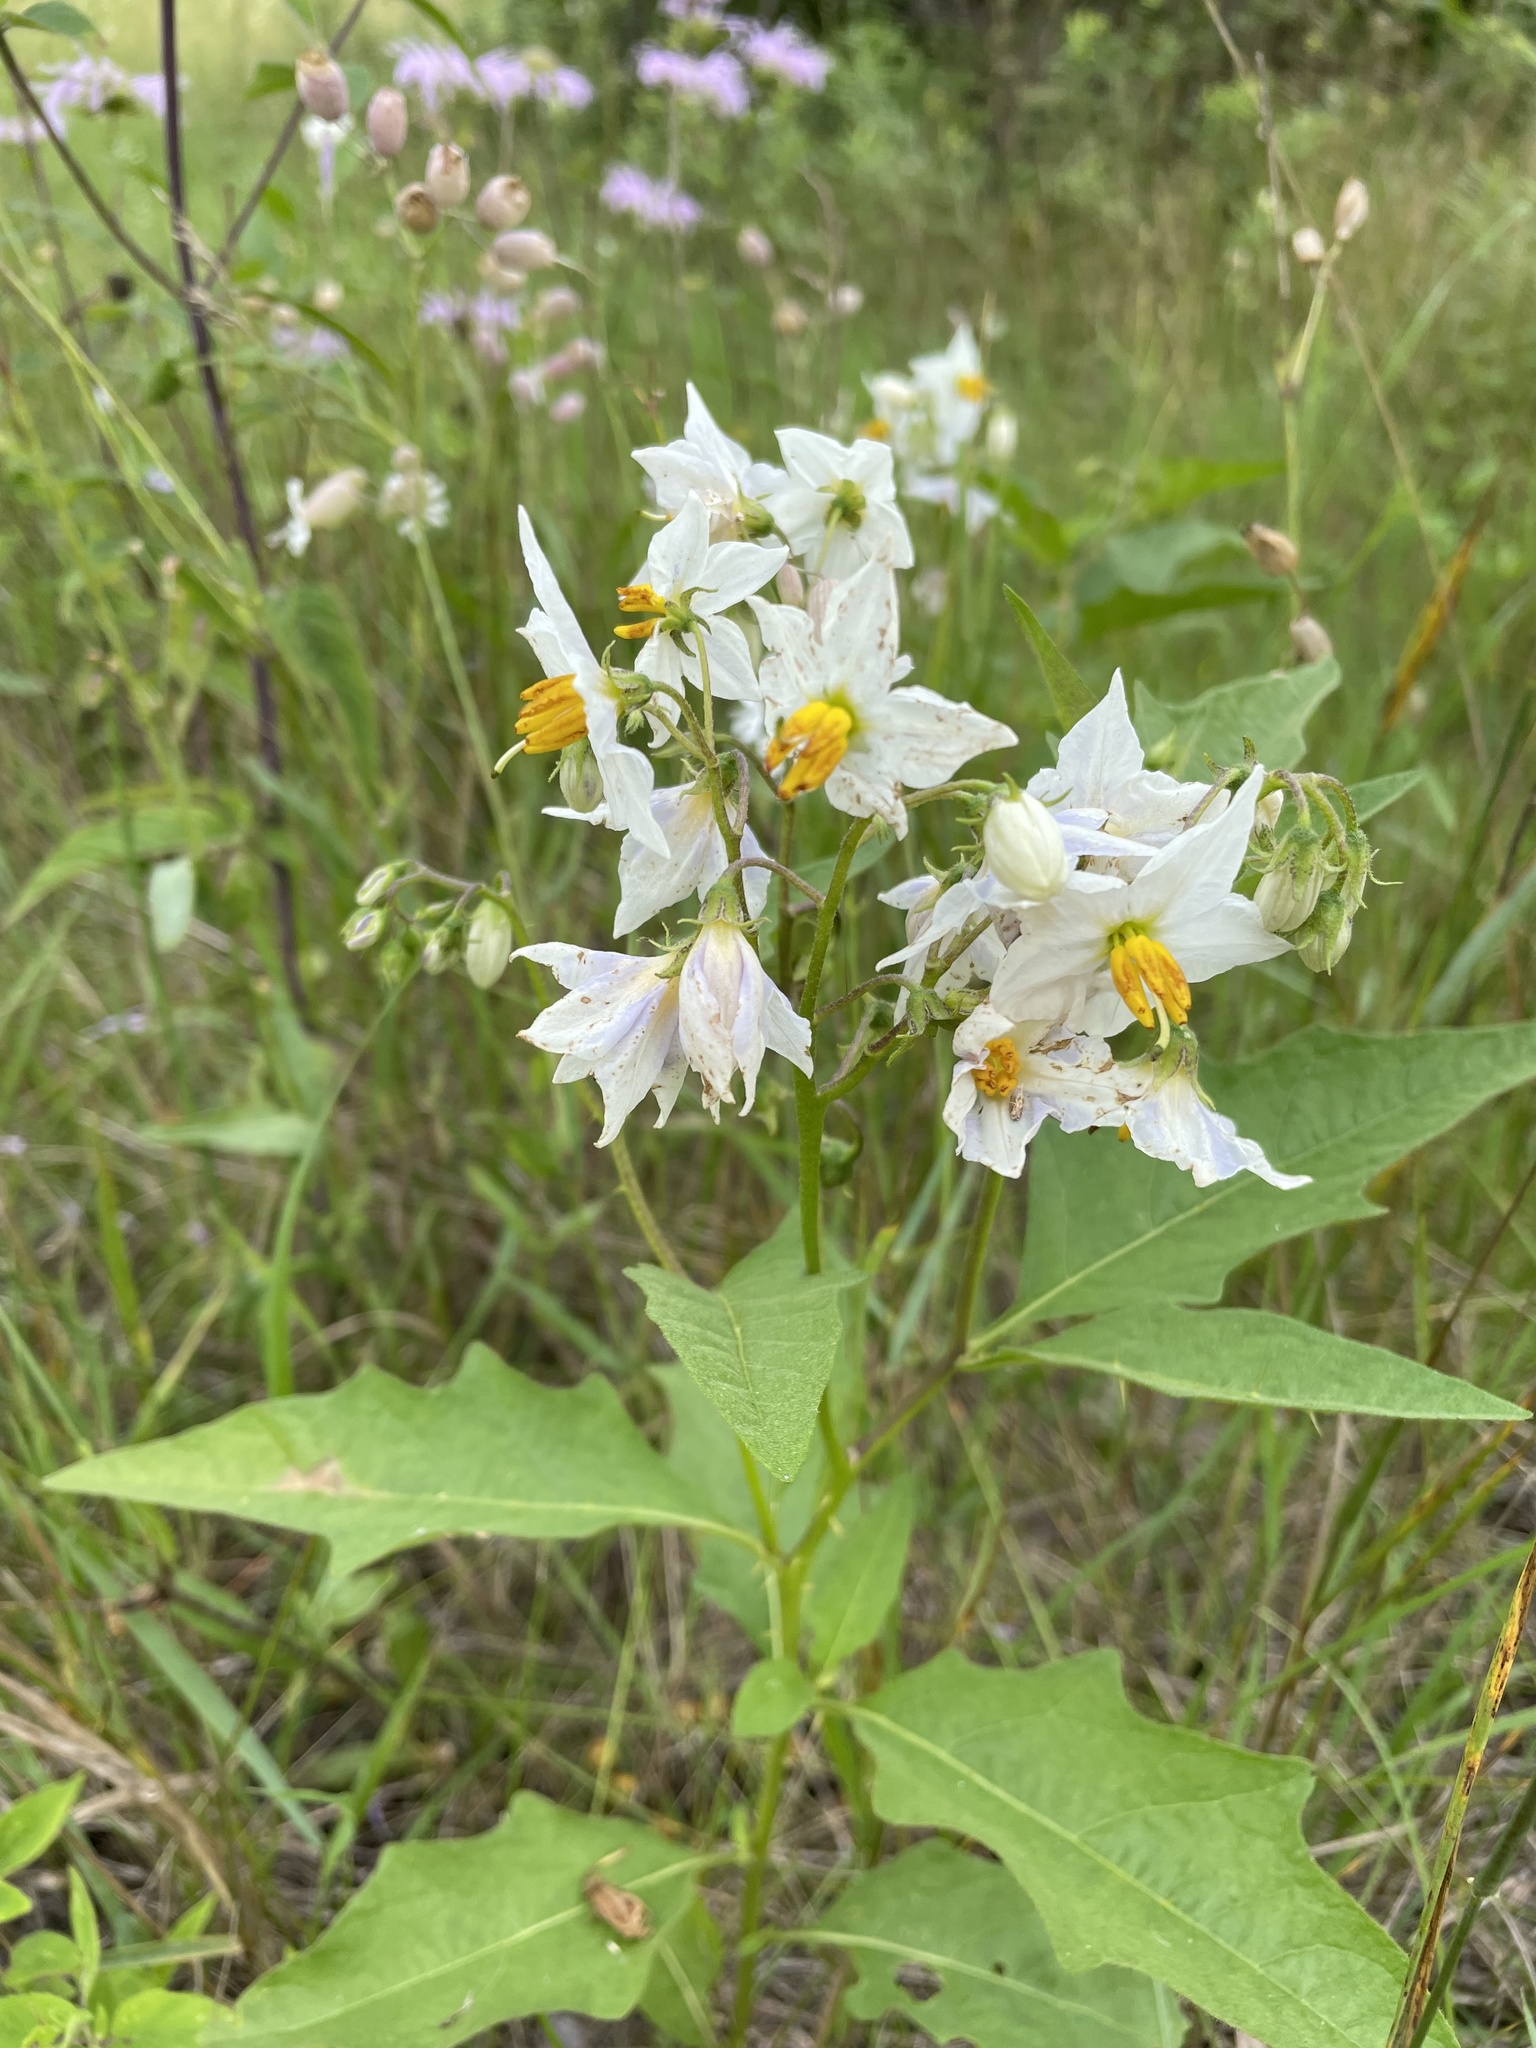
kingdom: Plantae
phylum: Tracheophyta
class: Magnoliopsida
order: Solanales
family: Solanaceae
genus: Solanum
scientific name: Solanum carolinense
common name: Horse-nettle
